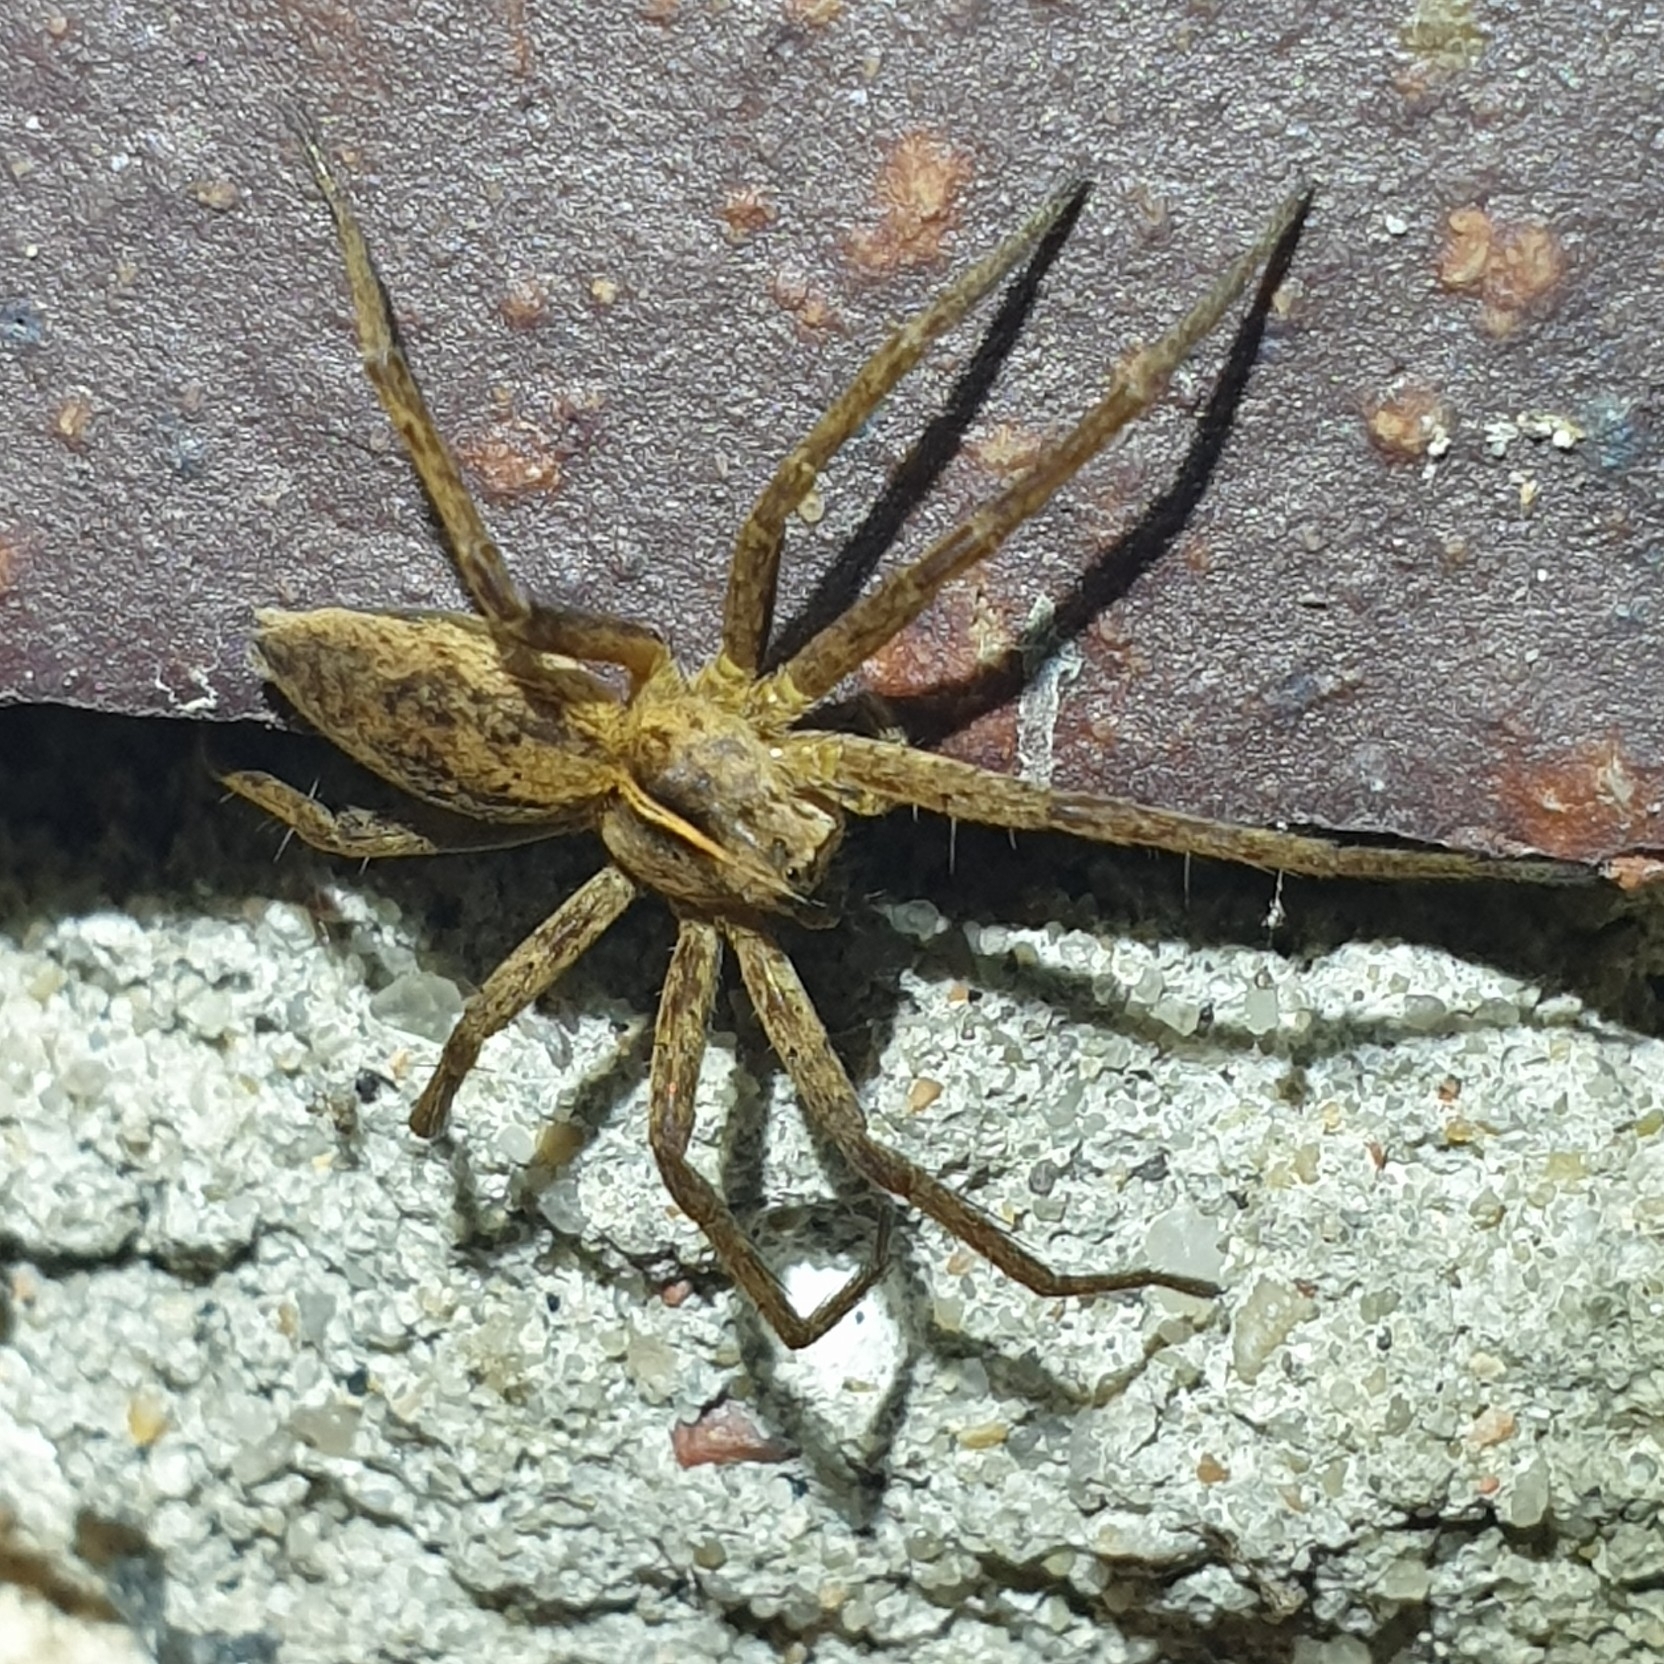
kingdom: Animalia
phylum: Arthropoda
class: Arachnida
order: Araneae
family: Pisauridae
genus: Pisaura
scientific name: Pisaura mirabilis
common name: Tent spider
